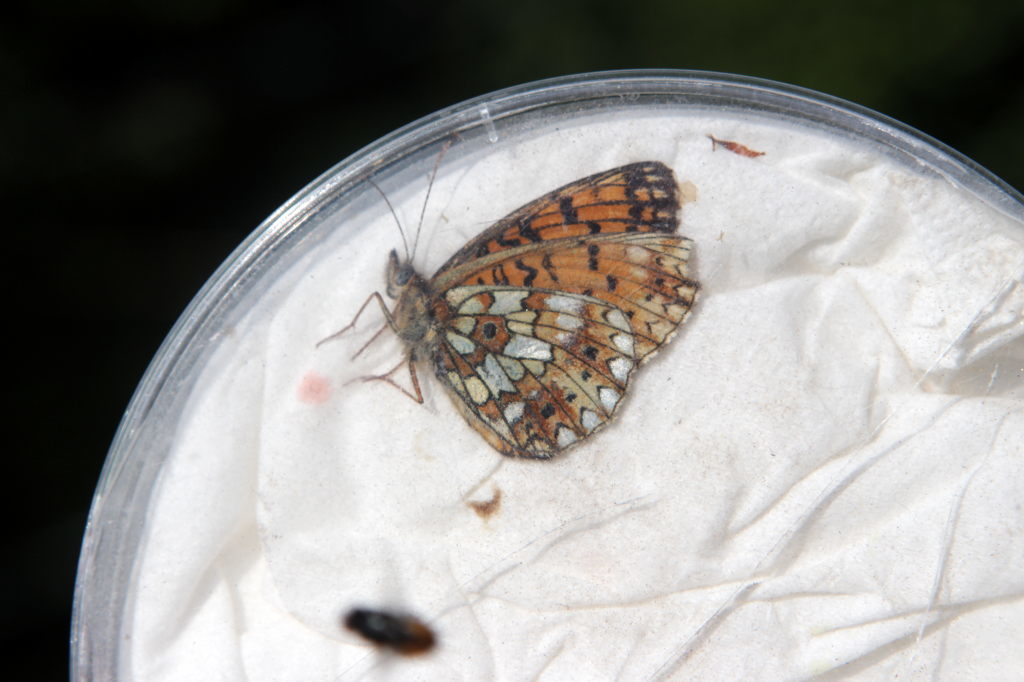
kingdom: Animalia
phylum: Arthropoda
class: Insecta
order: Lepidoptera
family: Nymphalidae
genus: Boloria
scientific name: Boloria selene
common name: Small pearl-bordered fritillary
